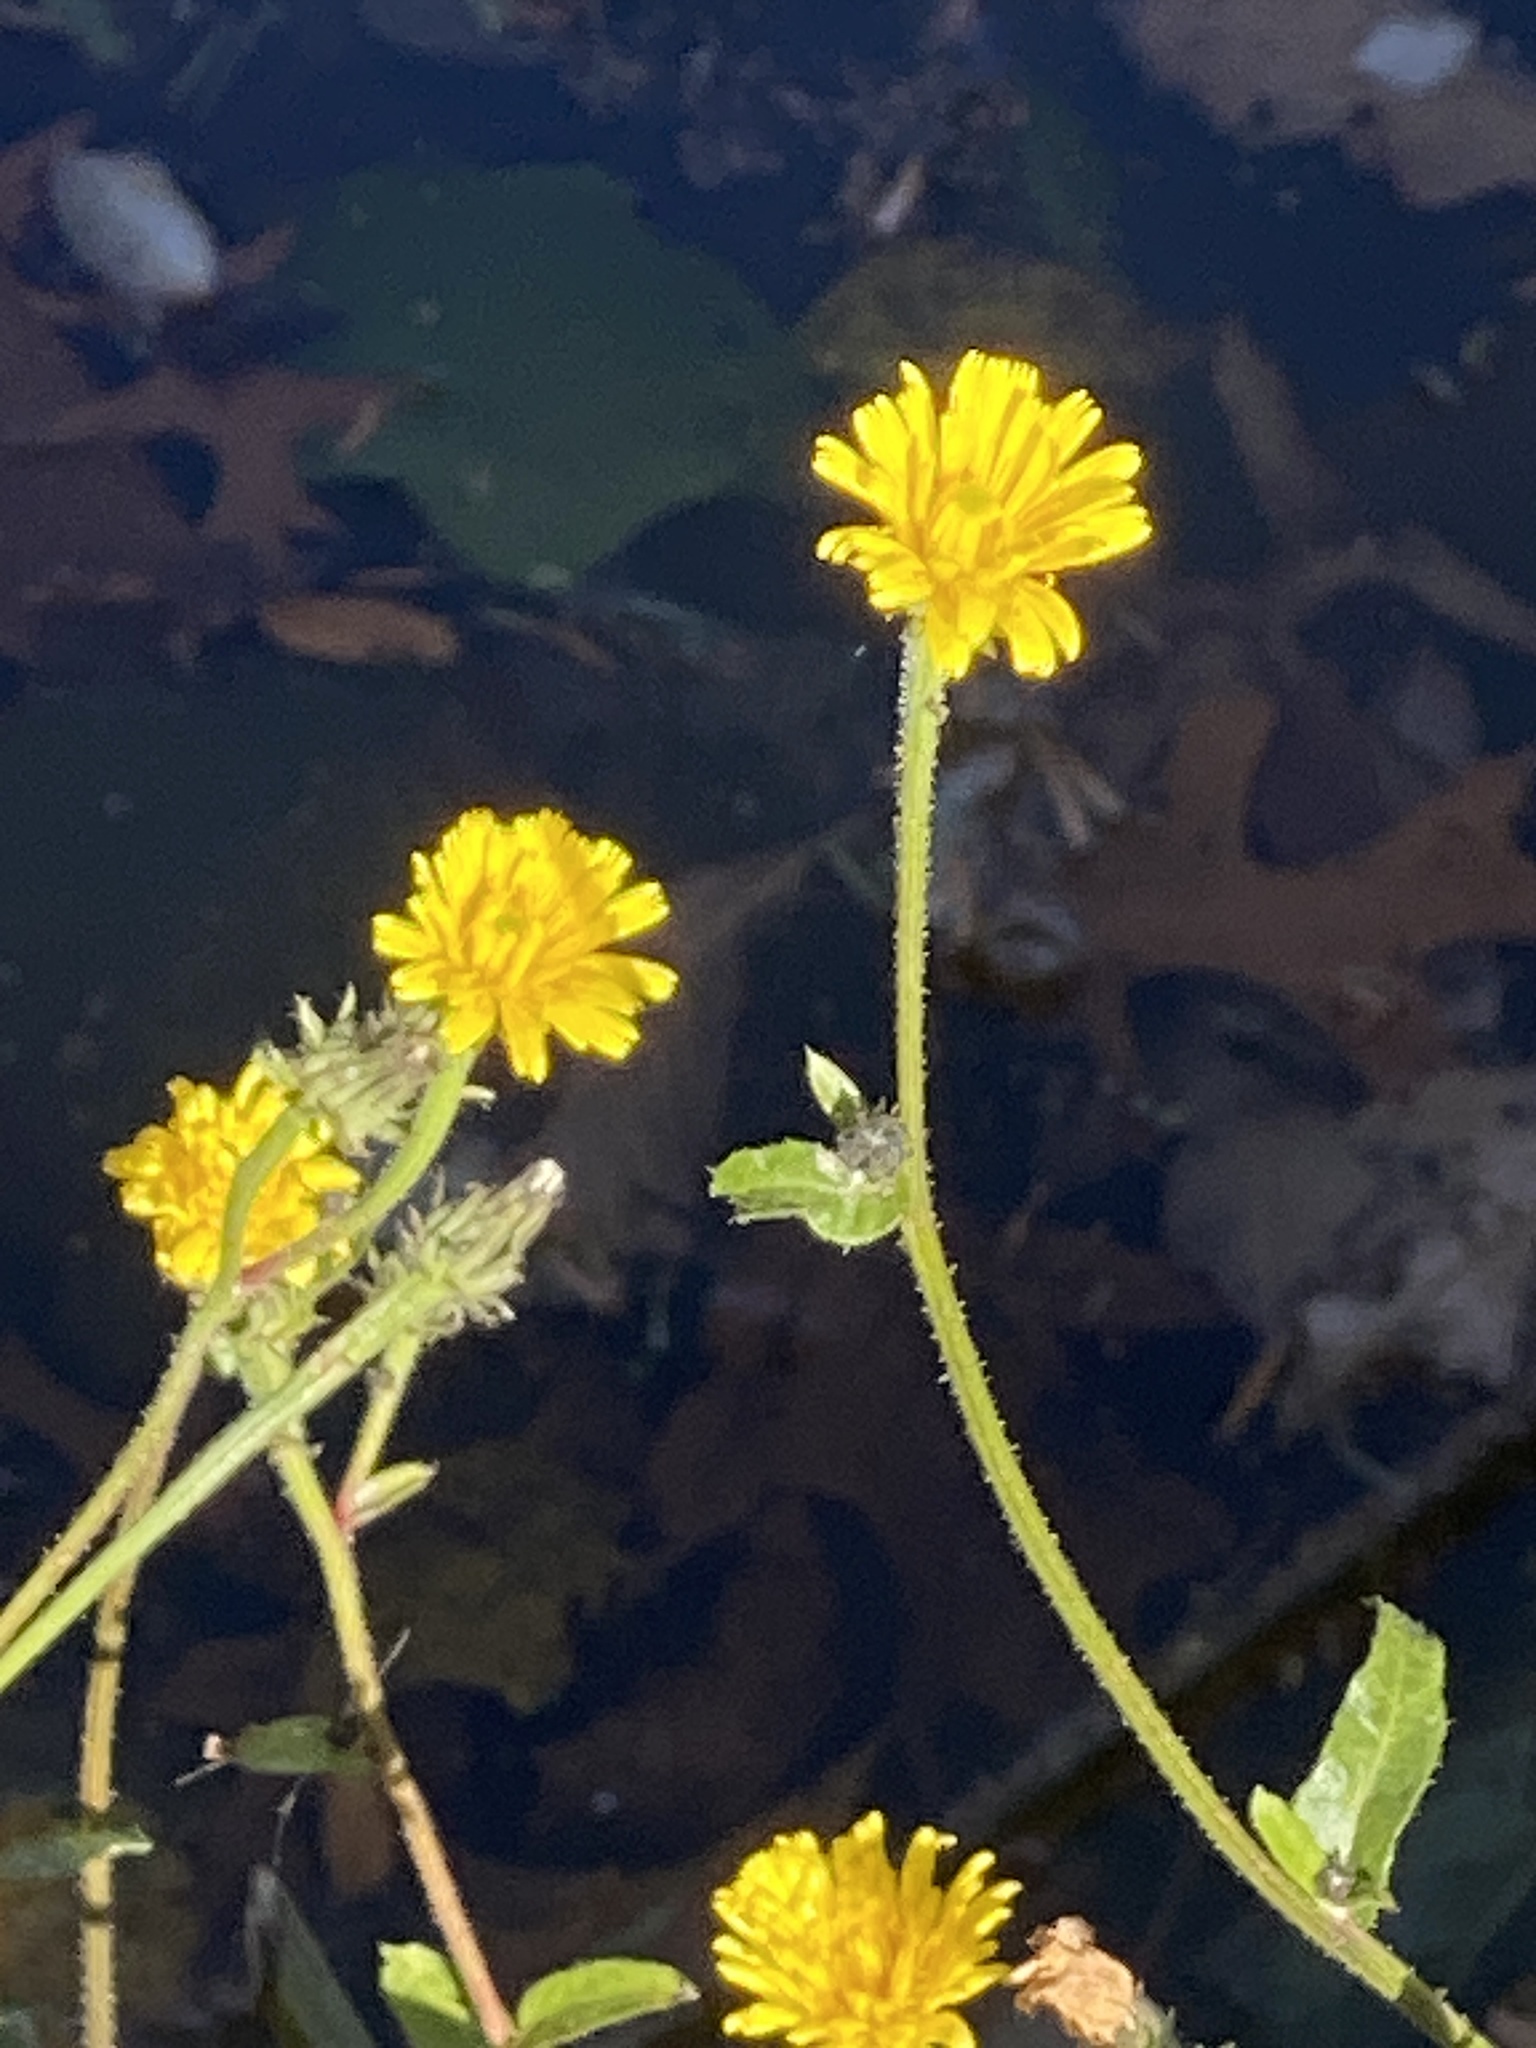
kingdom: Plantae
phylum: Tracheophyta
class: Magnoliopsida
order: Asterales
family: Asteraceae
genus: Picris
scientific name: Picris hieracioides
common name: Hawkweed oxtongue
